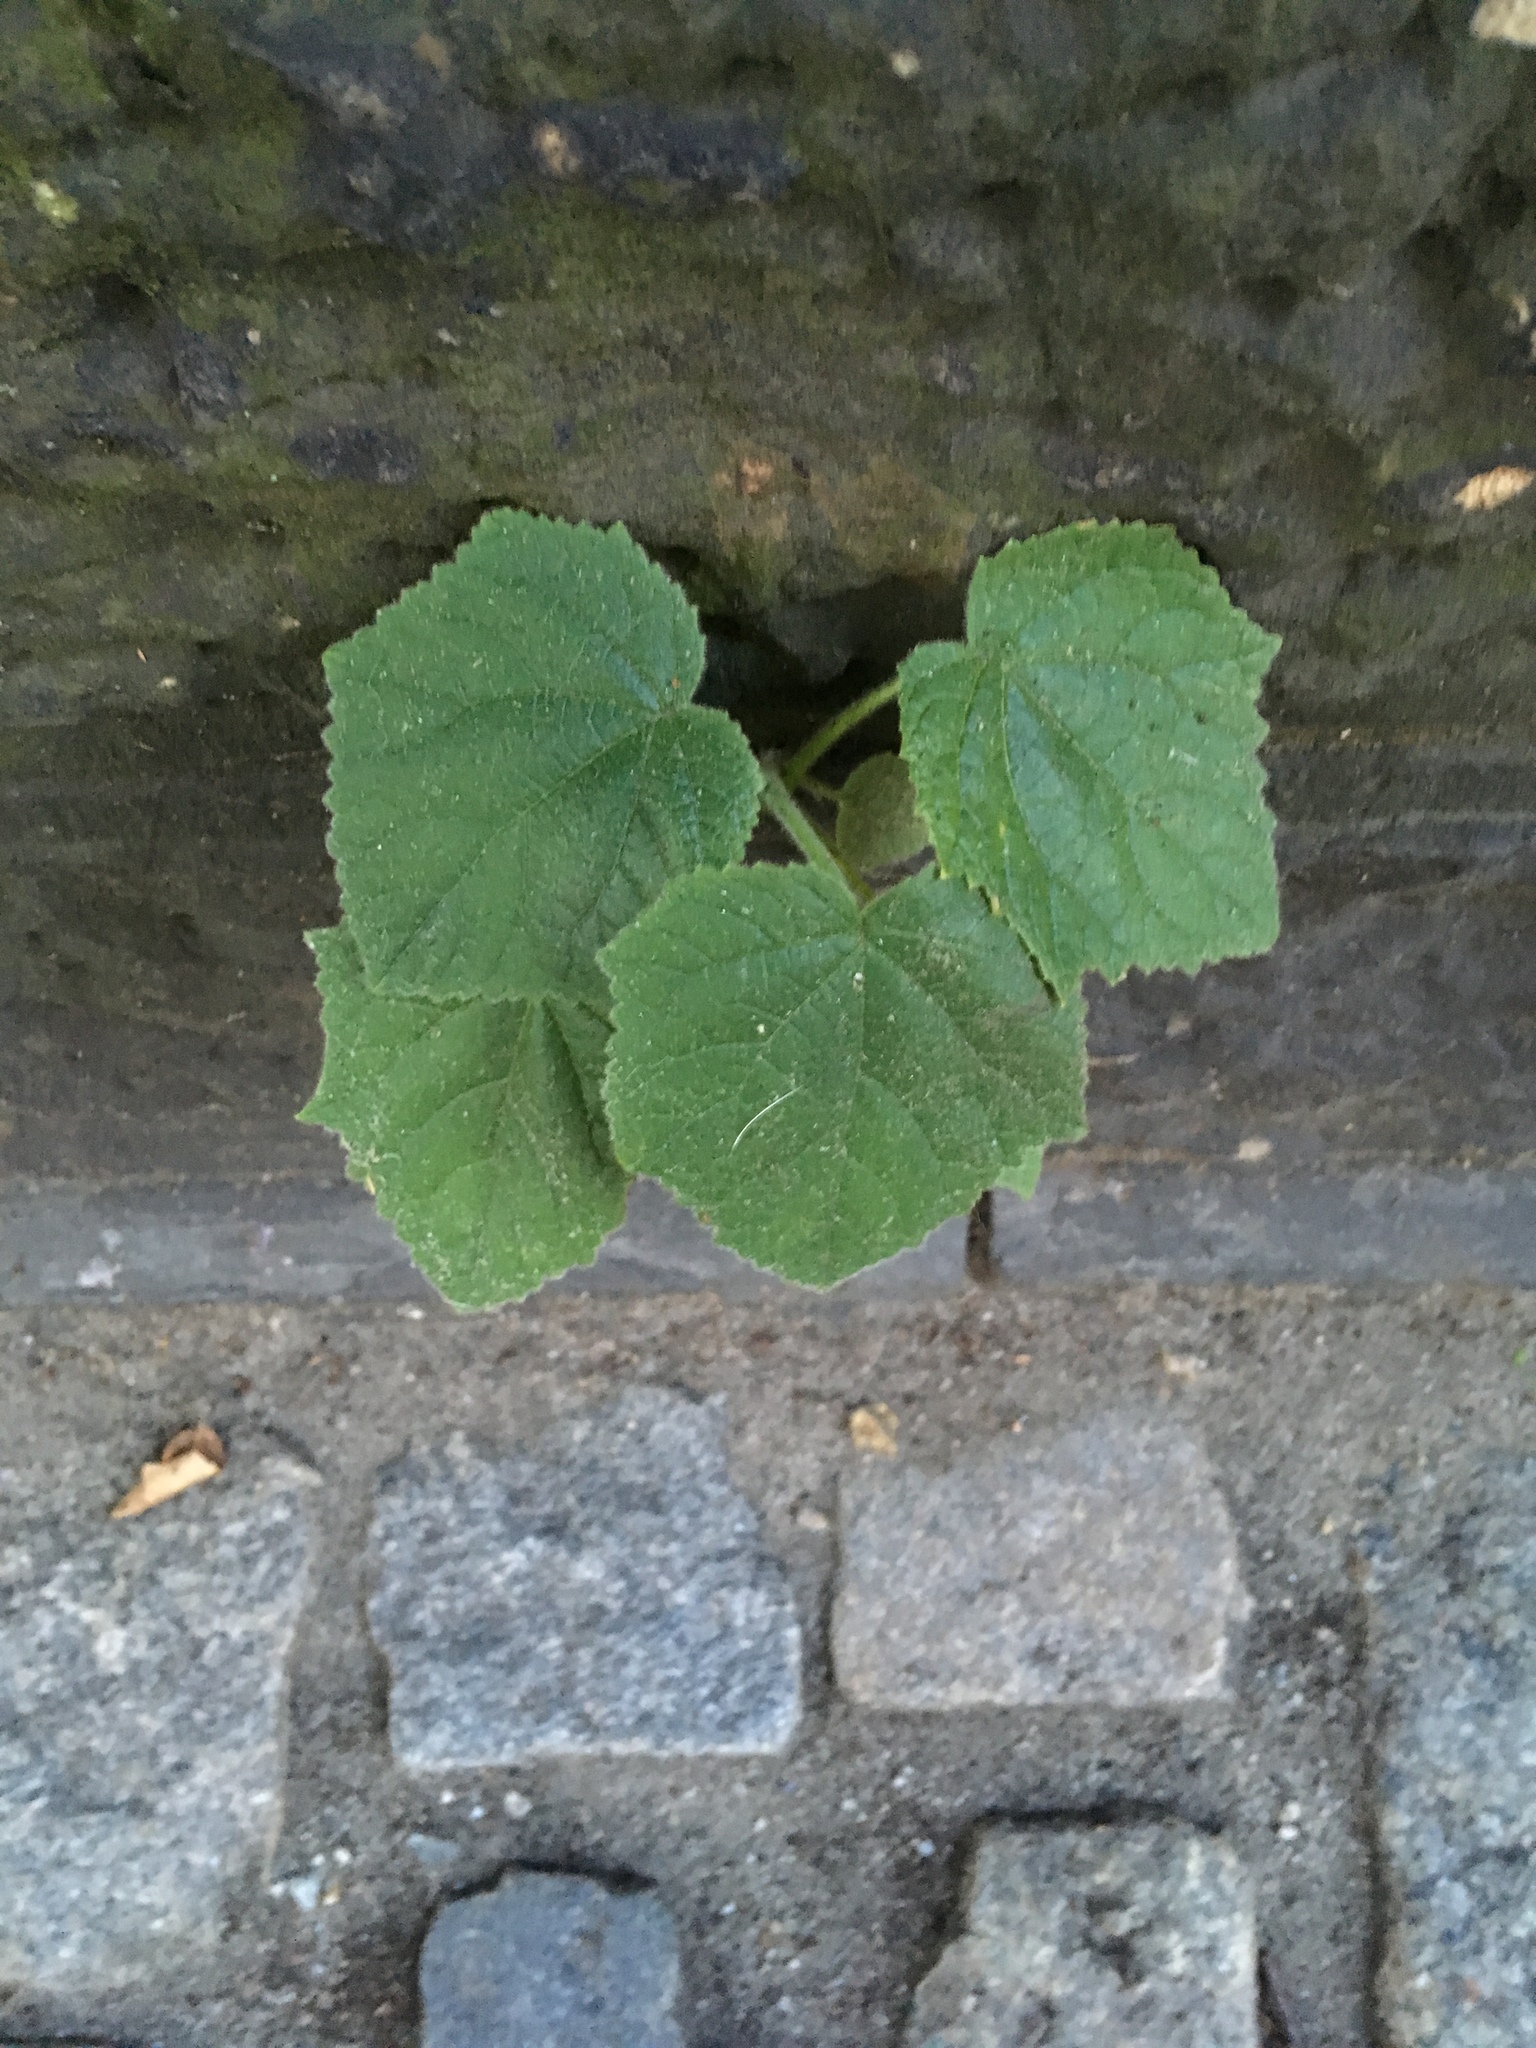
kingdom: Plantae
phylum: Tracheophyta
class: Magnoliopsida
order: Lamiales
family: Paulowniaceae
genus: Paulownia
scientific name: Paulownia tomentosa
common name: Foxglove-tree
